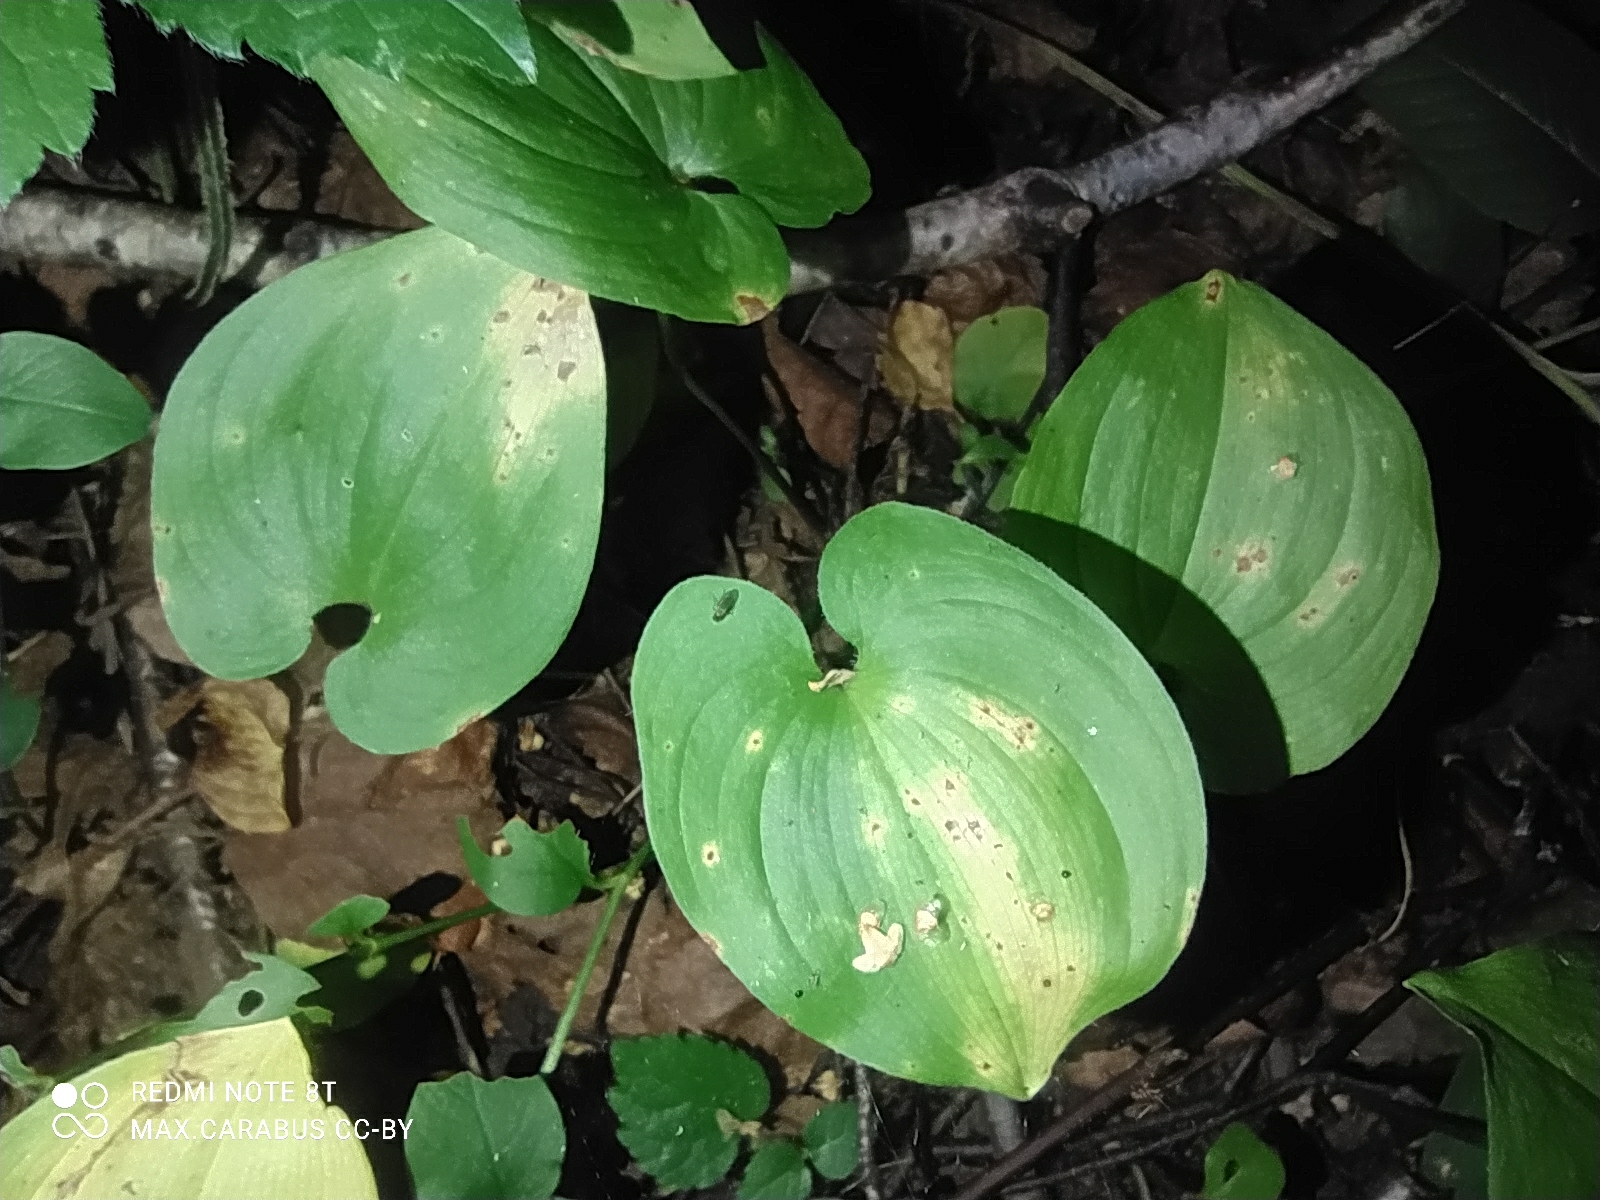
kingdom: Plantae
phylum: Tracheophyta
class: Liliopsida
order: Asparagales
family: Asparagaceae
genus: Maianthemum
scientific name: Maianthemum bifolium
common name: May lily
